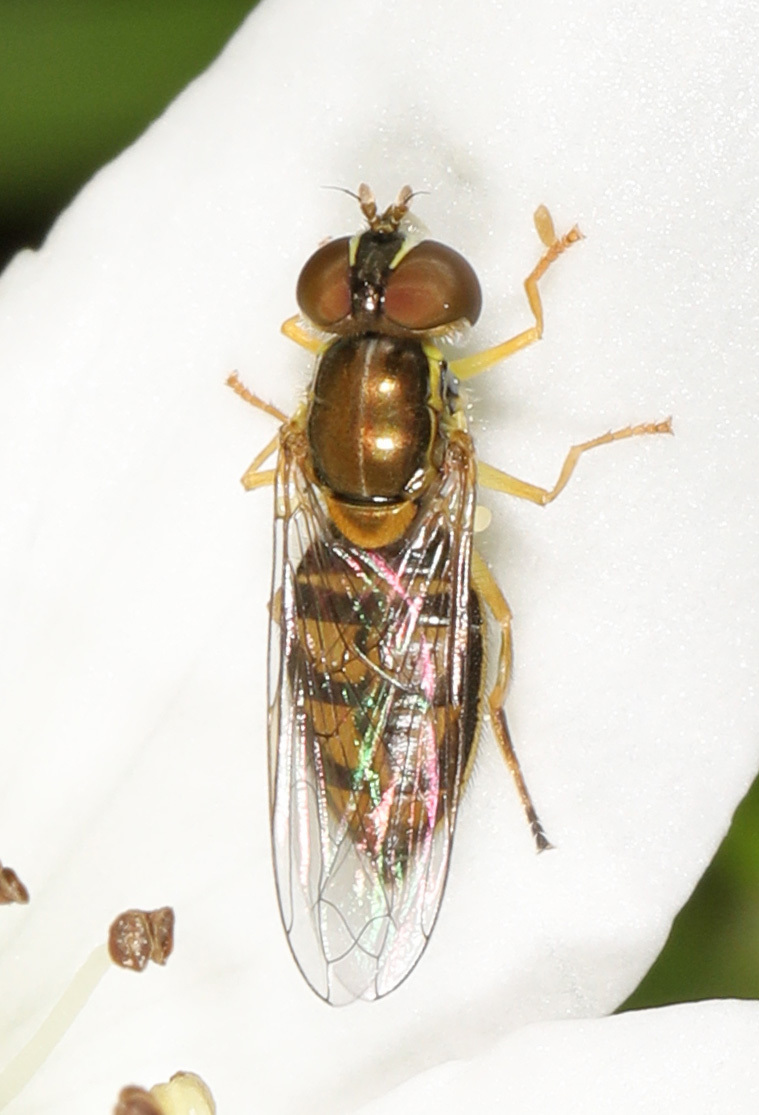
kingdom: Animalia
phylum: Arthropoda
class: Insecta
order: Diptera
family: Syrphidae
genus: Toxomerus
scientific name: Toxomerus marginatus
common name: Syrphid fly
